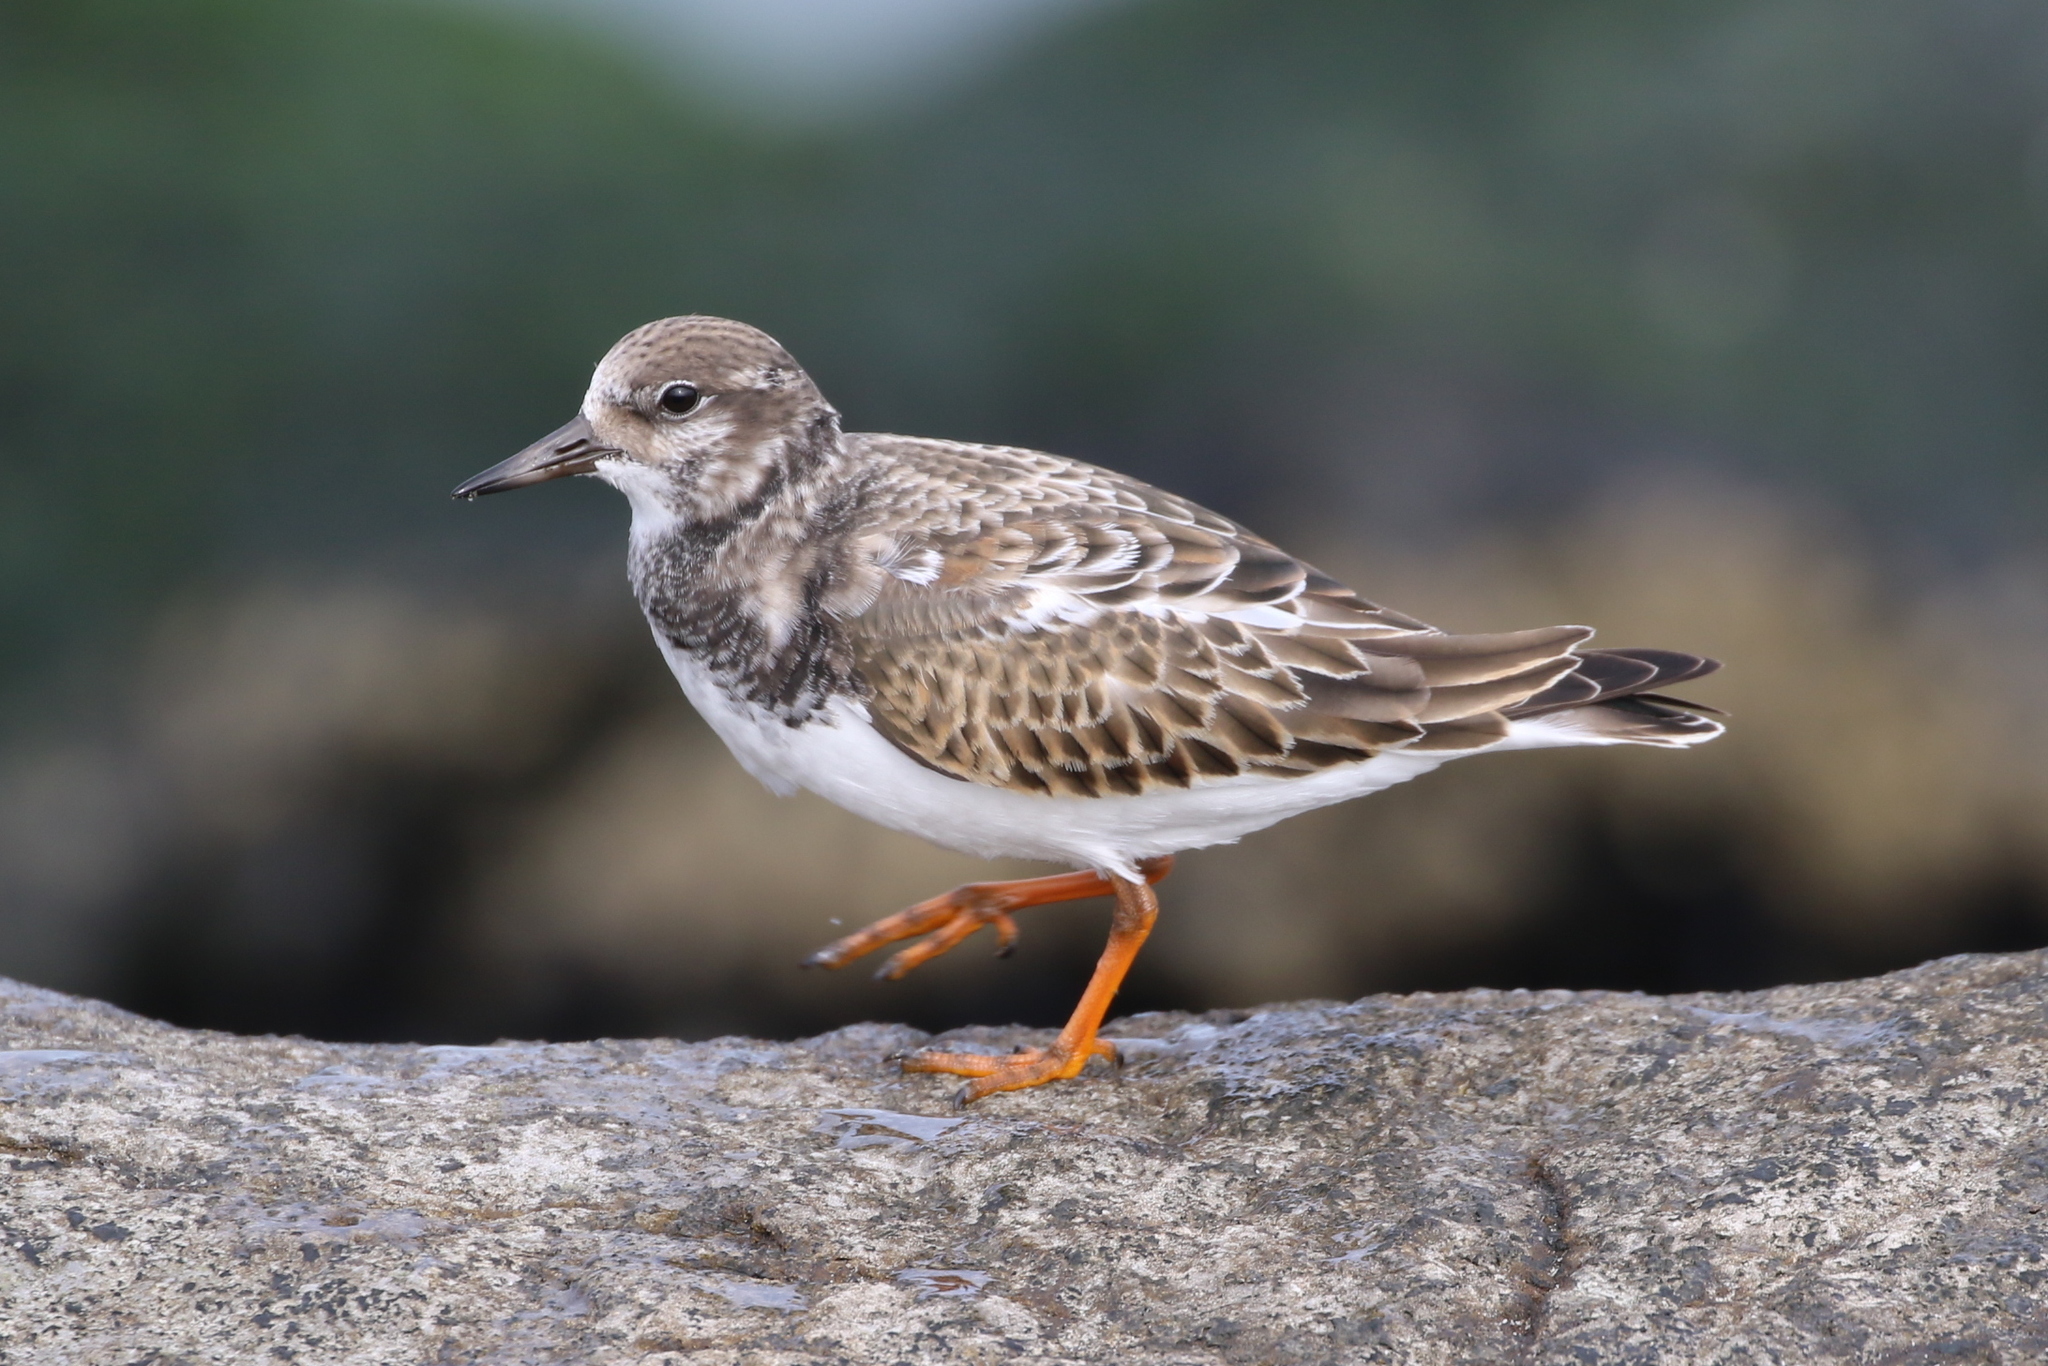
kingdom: Animalia
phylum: Chordata
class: Aves
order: Charadriiformes
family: Scolopacidae
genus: Arenaria
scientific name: Arenaria interpres
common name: Ruddy turnstone
